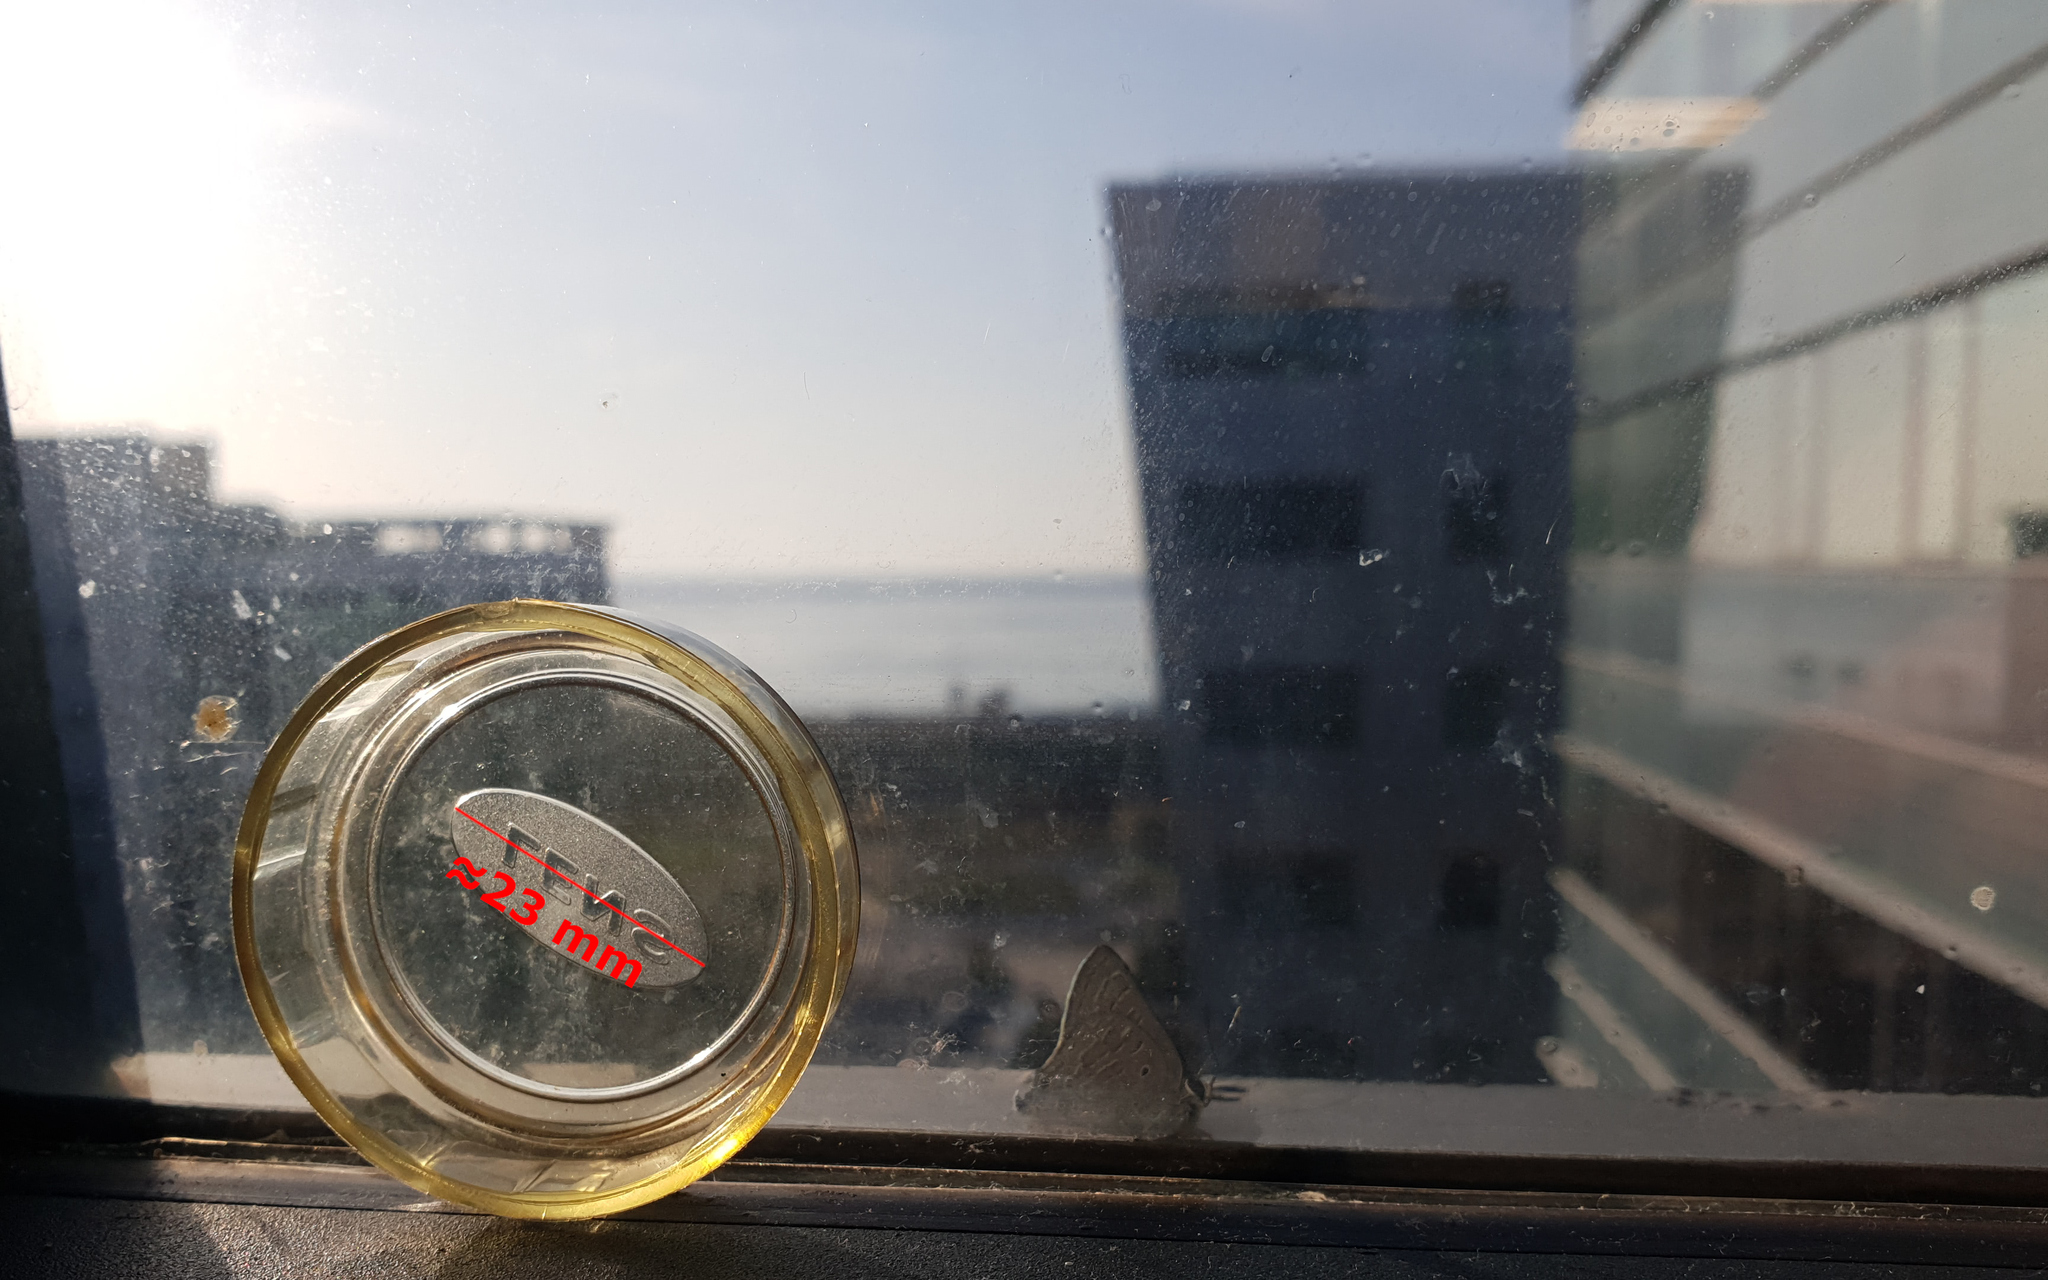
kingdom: Animalia
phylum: Arthropoda
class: Insecta
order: Lepidoptera
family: Lycaenidae
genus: Deudorix
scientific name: Deudorix livia
